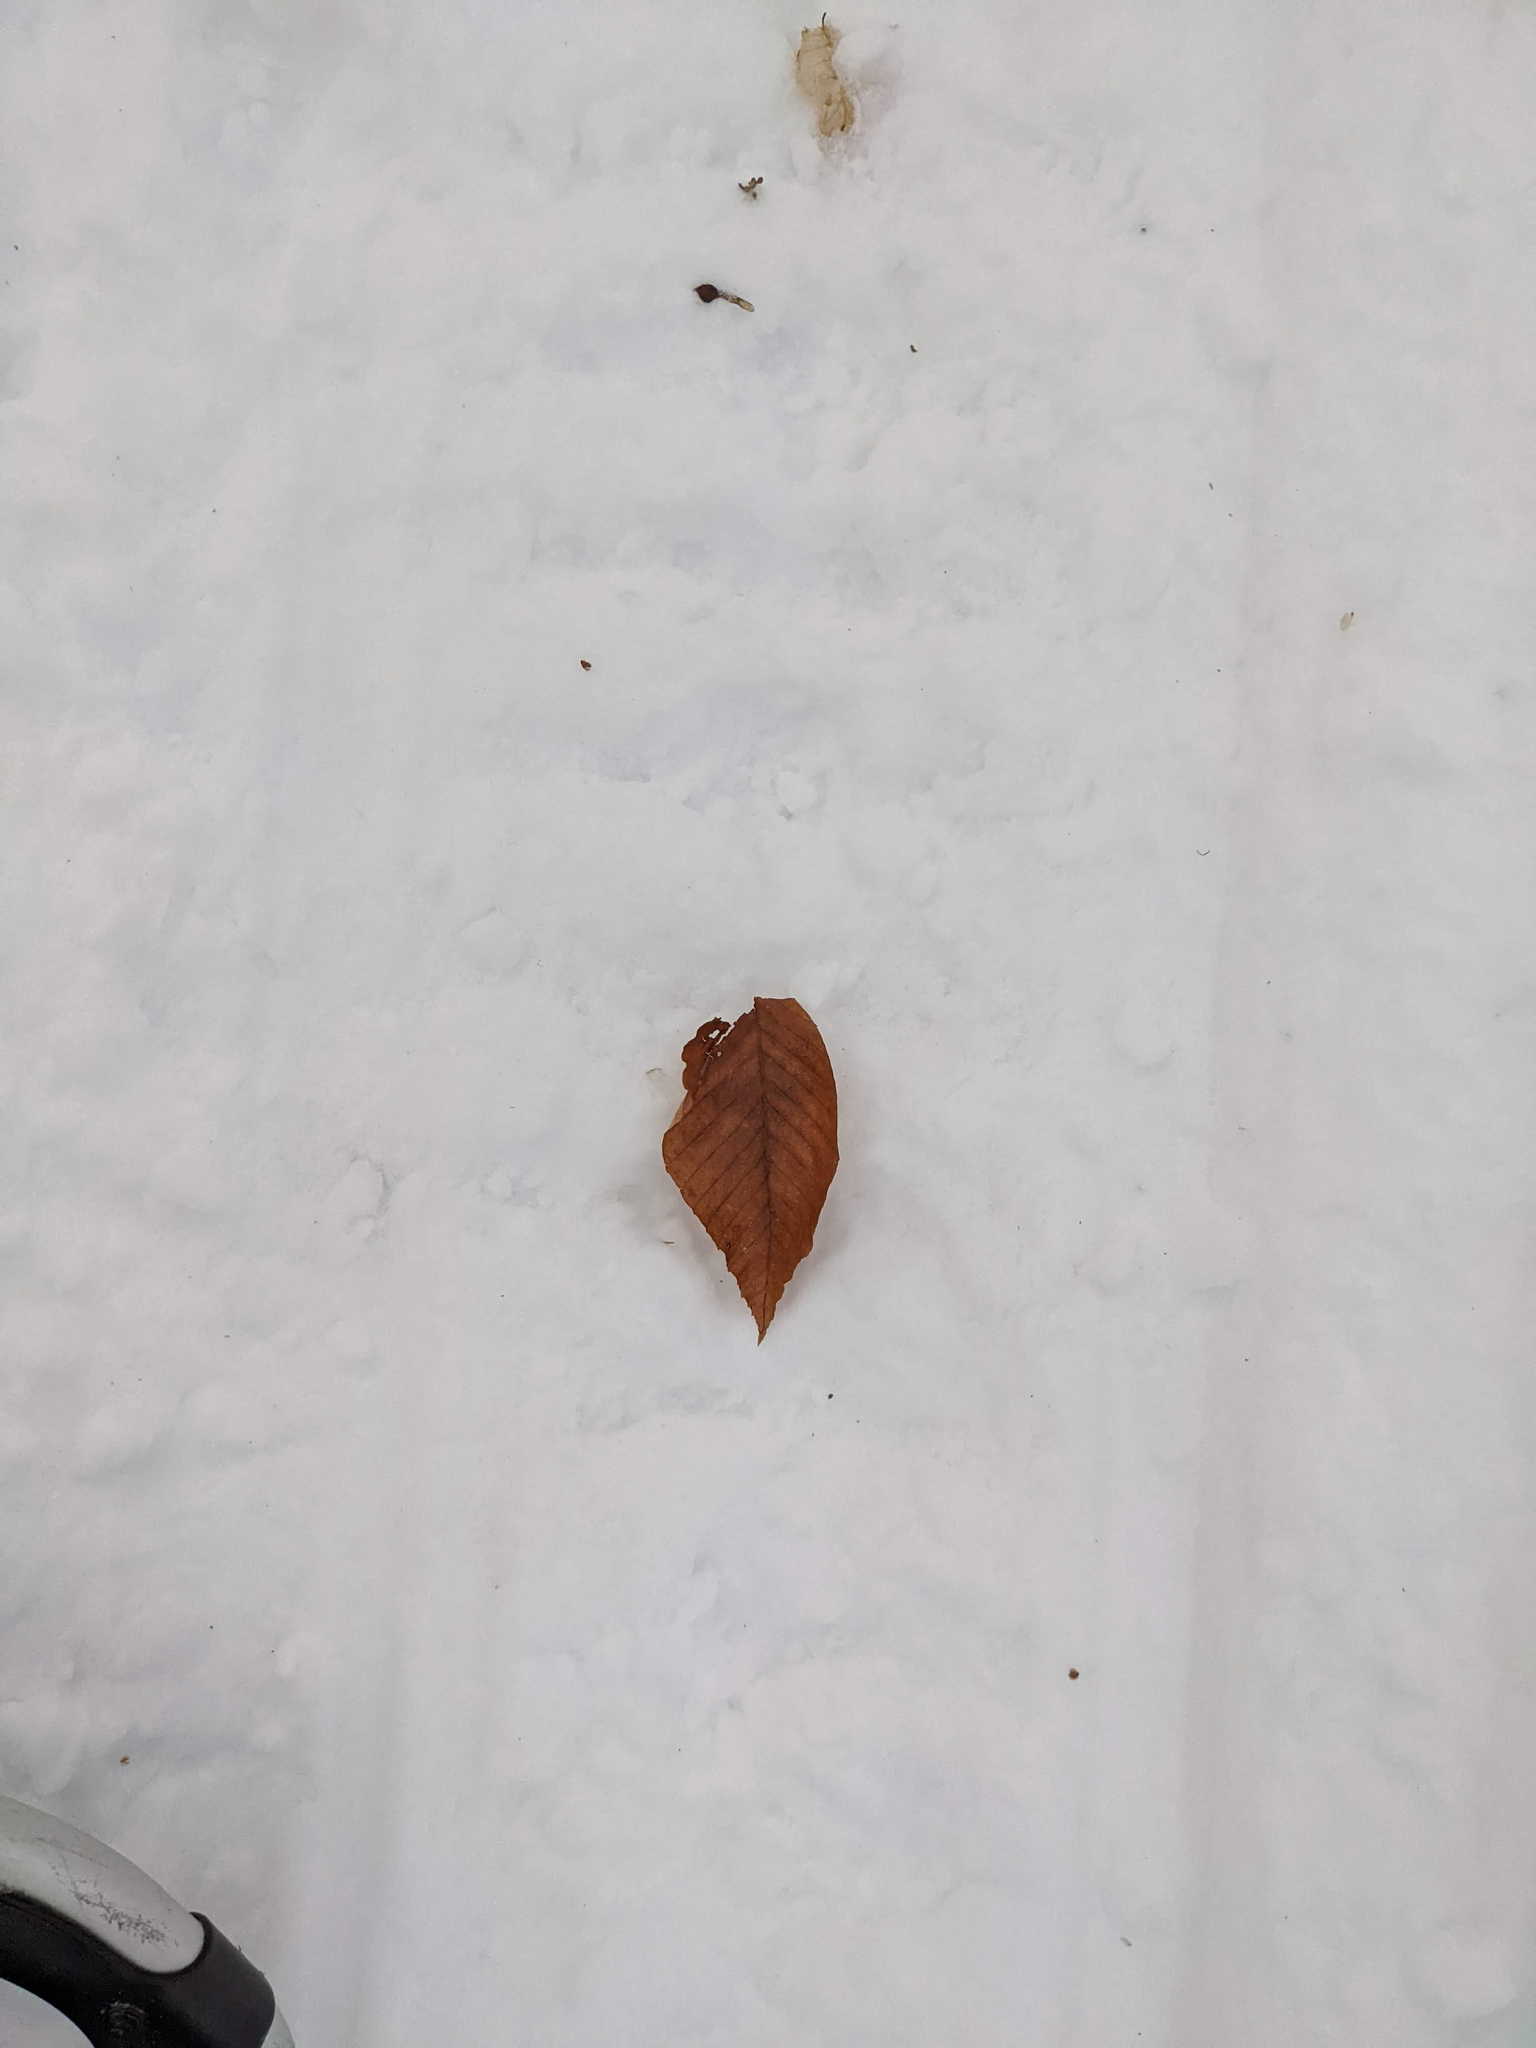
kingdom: Plantae
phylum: Tracheophyta
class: Magnoliopsida
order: Fagales
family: Fagaceae
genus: Fagus
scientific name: Fagus grandifolia
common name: American beech
